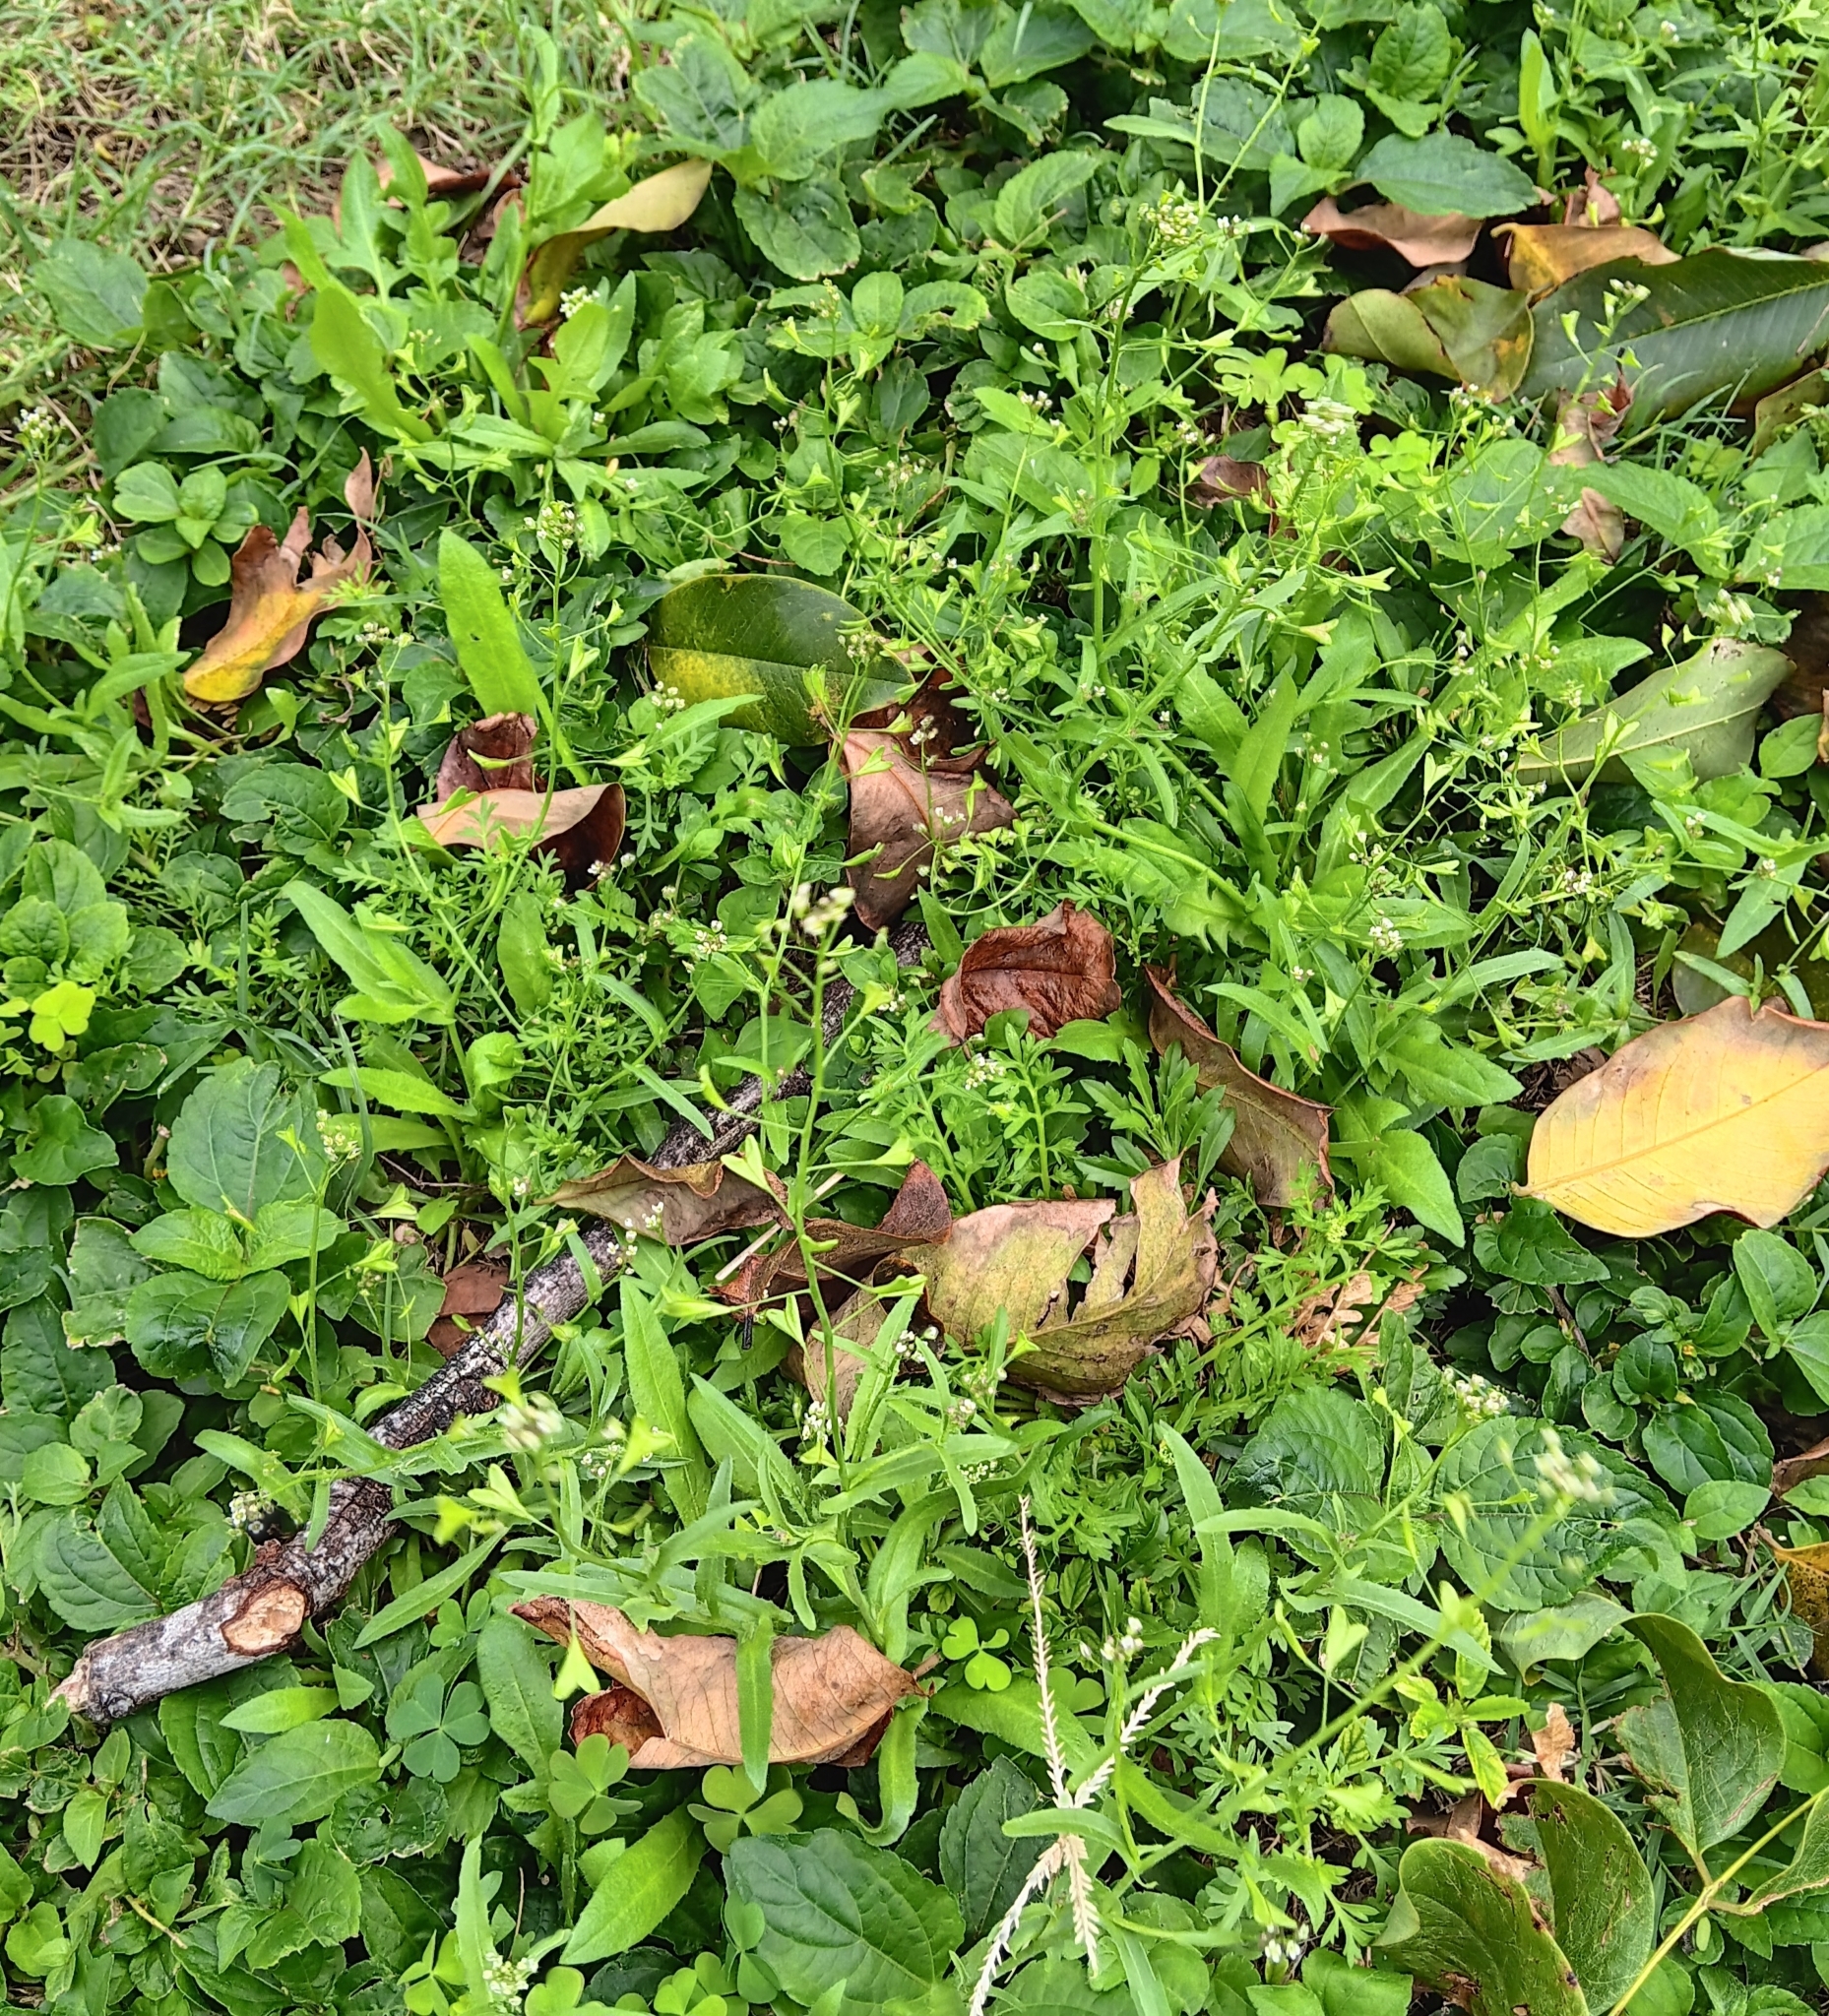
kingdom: Plantae
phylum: Tracheophyta
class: Magnoliopsida
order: Brassicales
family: Brassicaceae
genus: Capsella
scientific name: Capsella bursa-pastoris
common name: Shepherd's purse
